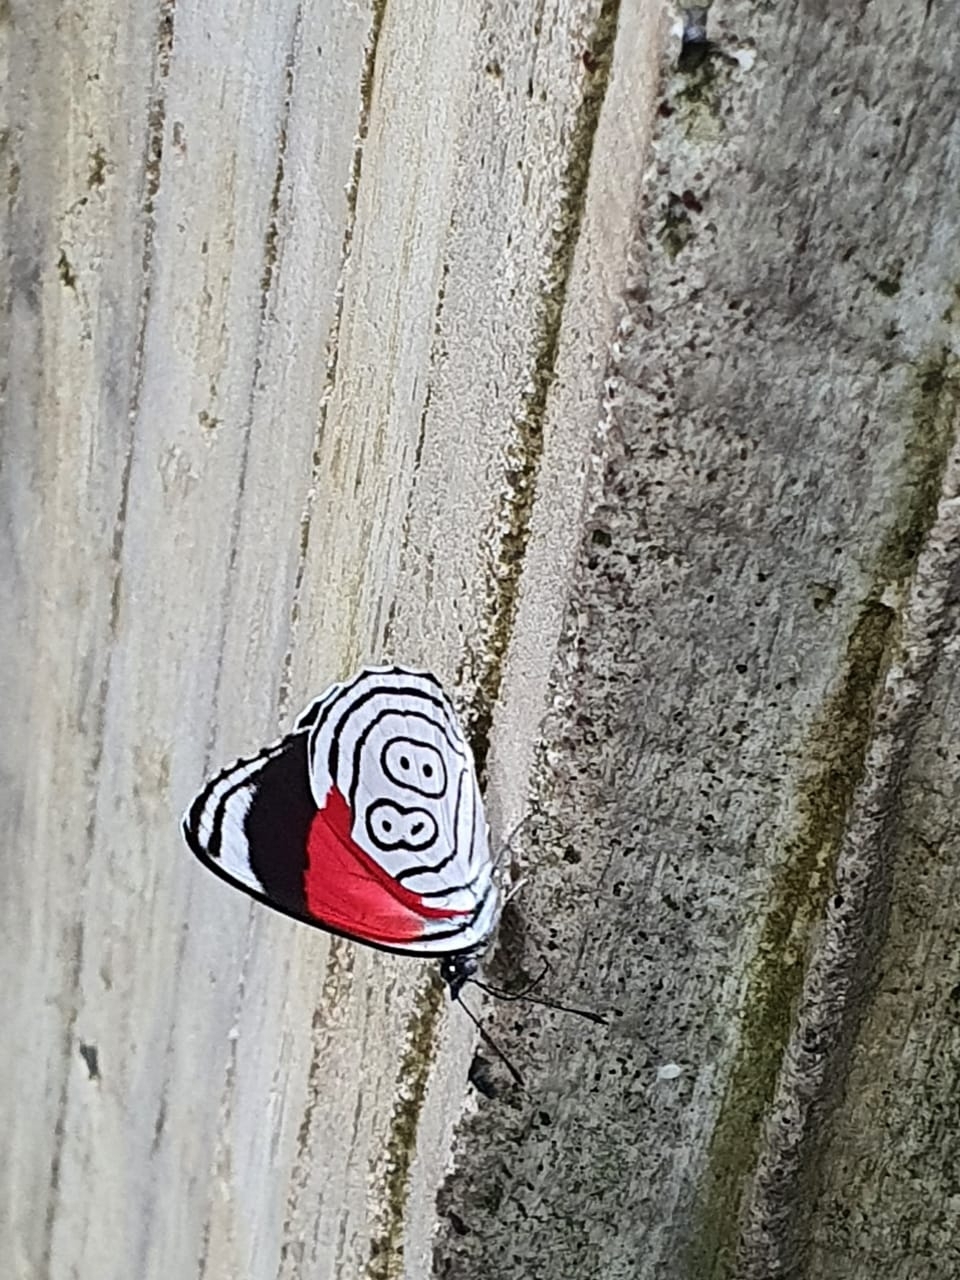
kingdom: Animalia
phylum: Arthropoda
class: Insecta
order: Lepidoptera
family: Nymphalidae
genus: Diaethria
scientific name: Diaethria anna
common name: Anna’s eighty-eight
